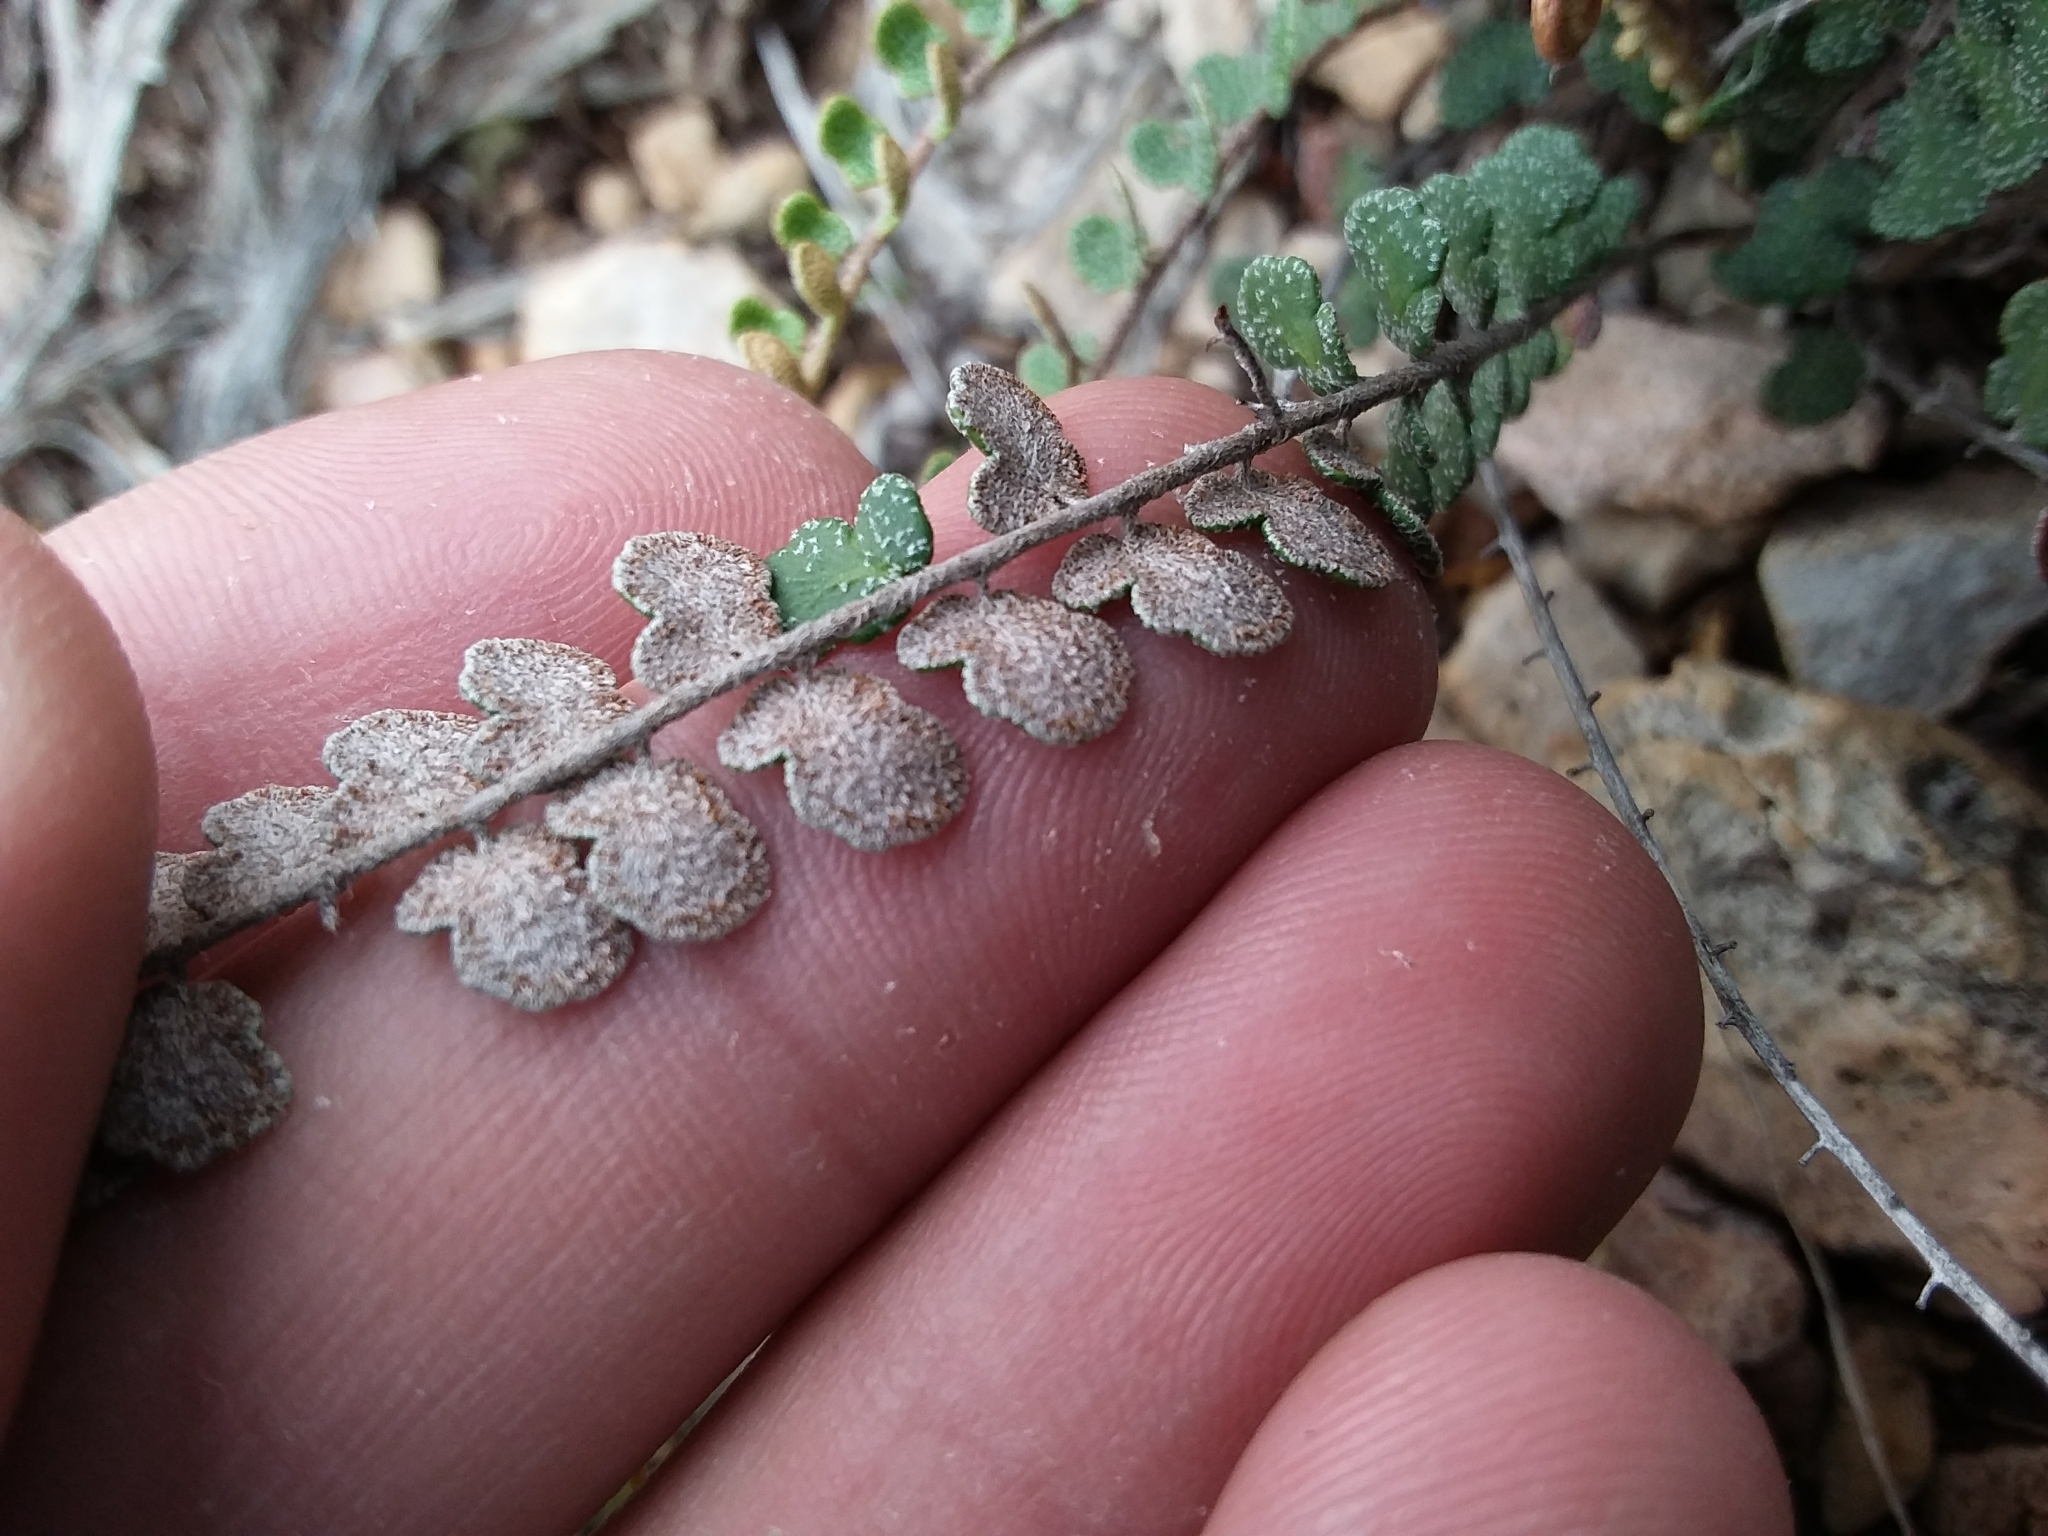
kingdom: Plantae
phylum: Tracheophyta
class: Polypodiopsida
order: Polypodiales
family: Pteridaceae
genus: Astrolepis
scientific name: Astrolepis cochisensis
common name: Scaly cloak fern
